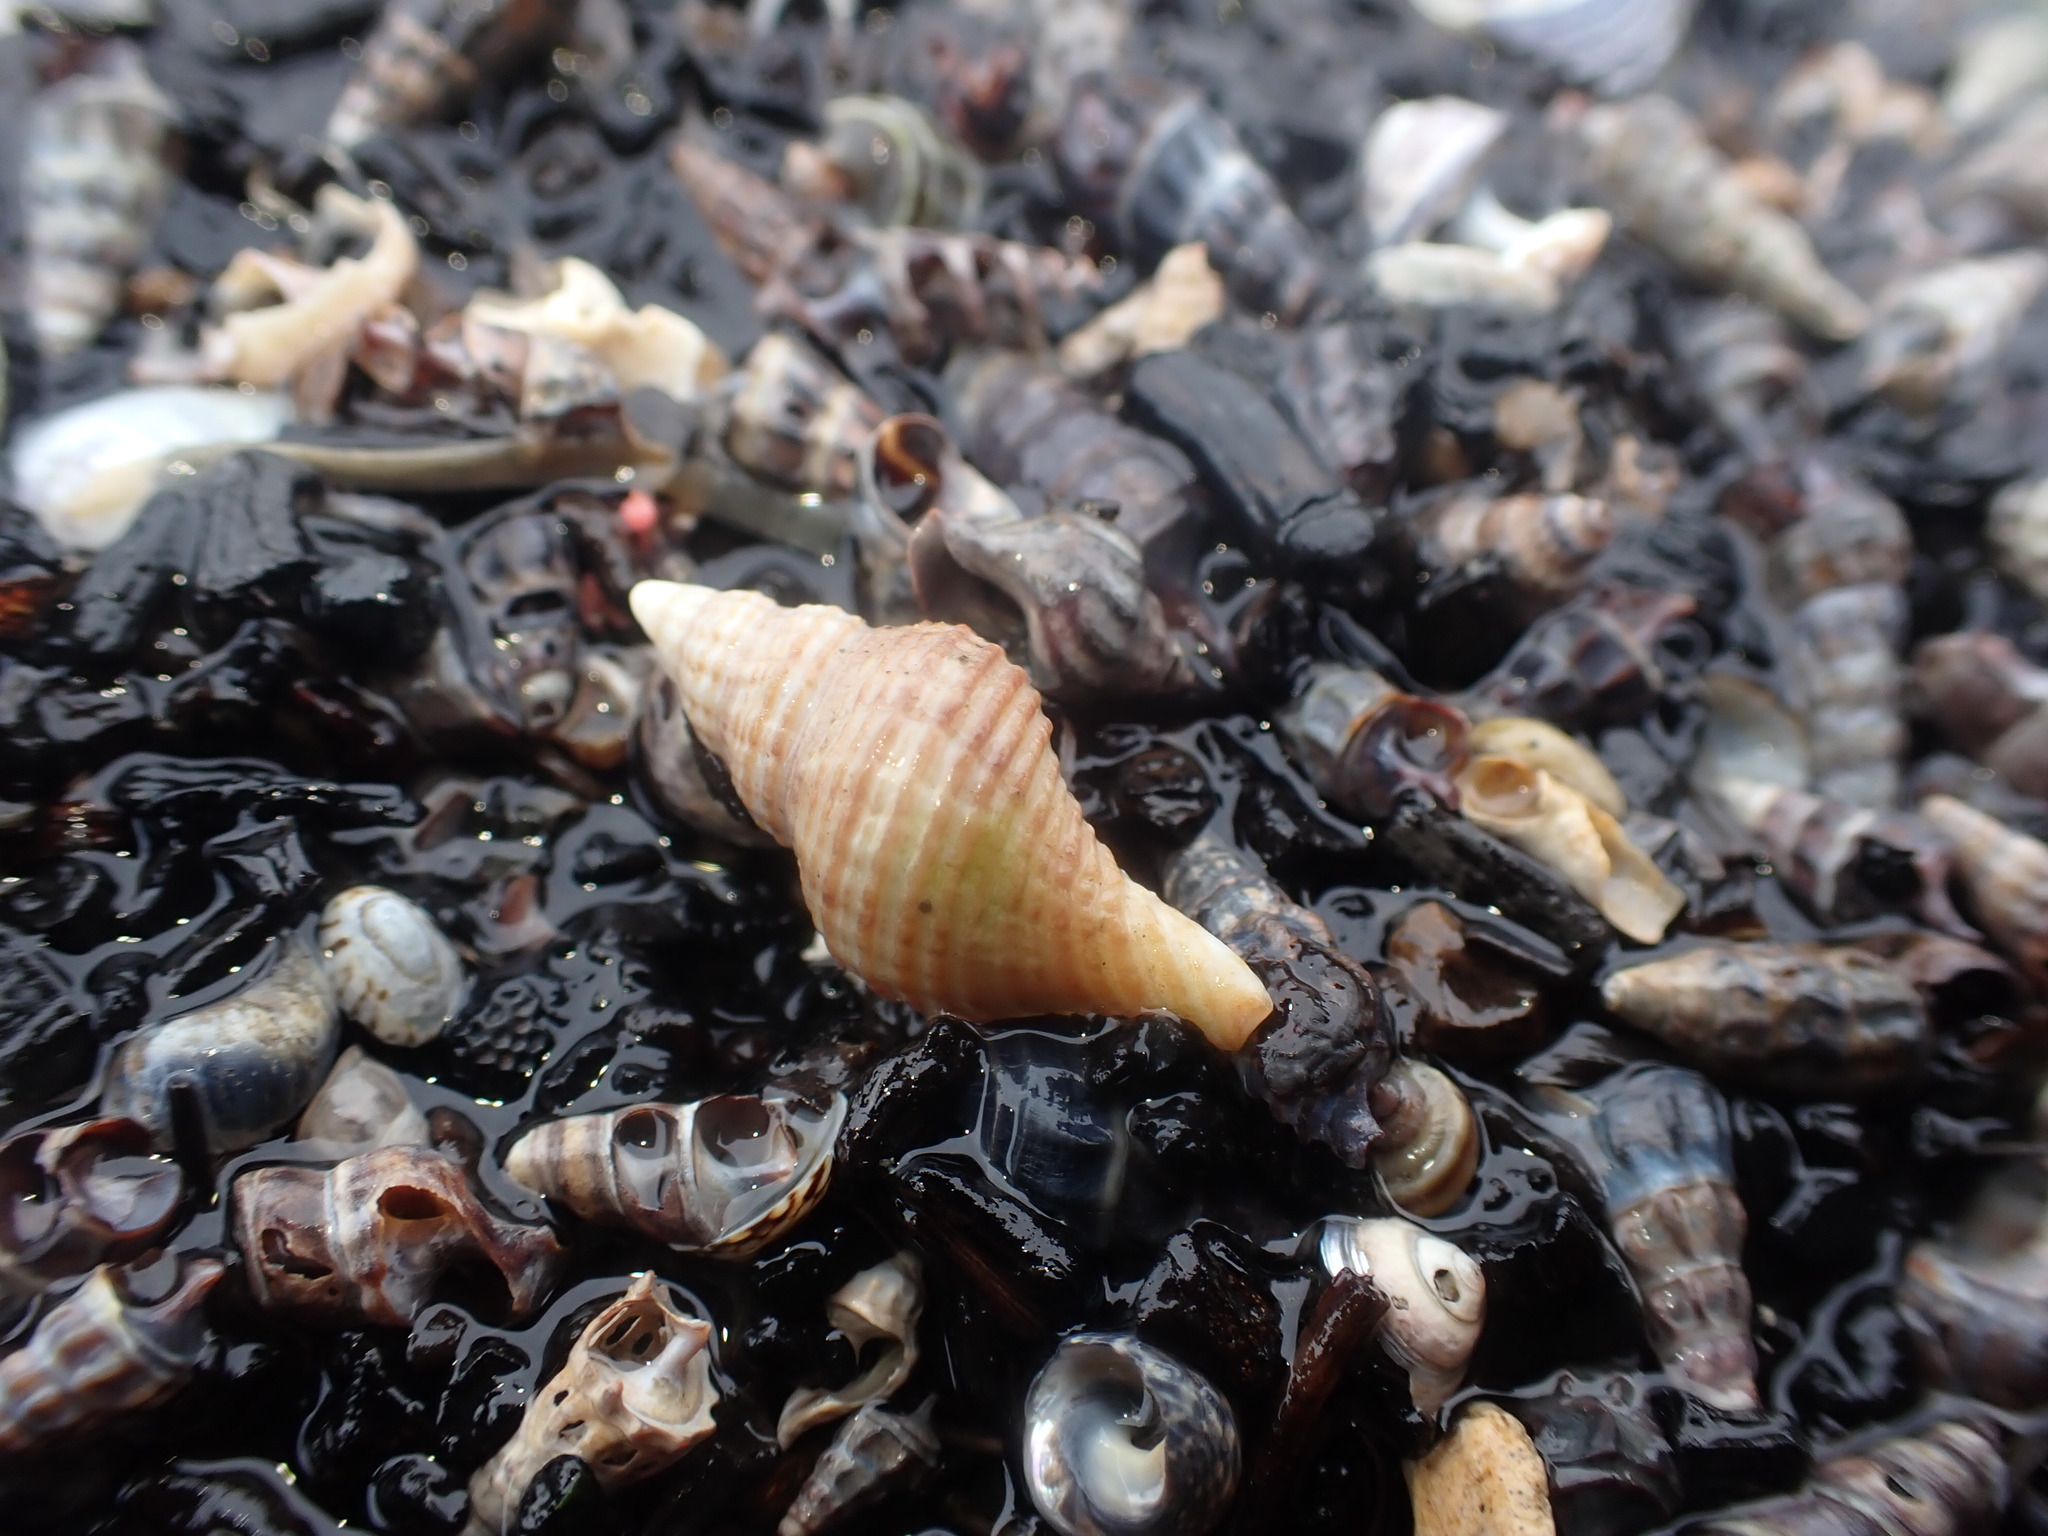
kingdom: Animalia
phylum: Mollusca
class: Gastropoda
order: Neogastropoda
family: Austrosiphonidae
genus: Penion
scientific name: Penion sulcatus
